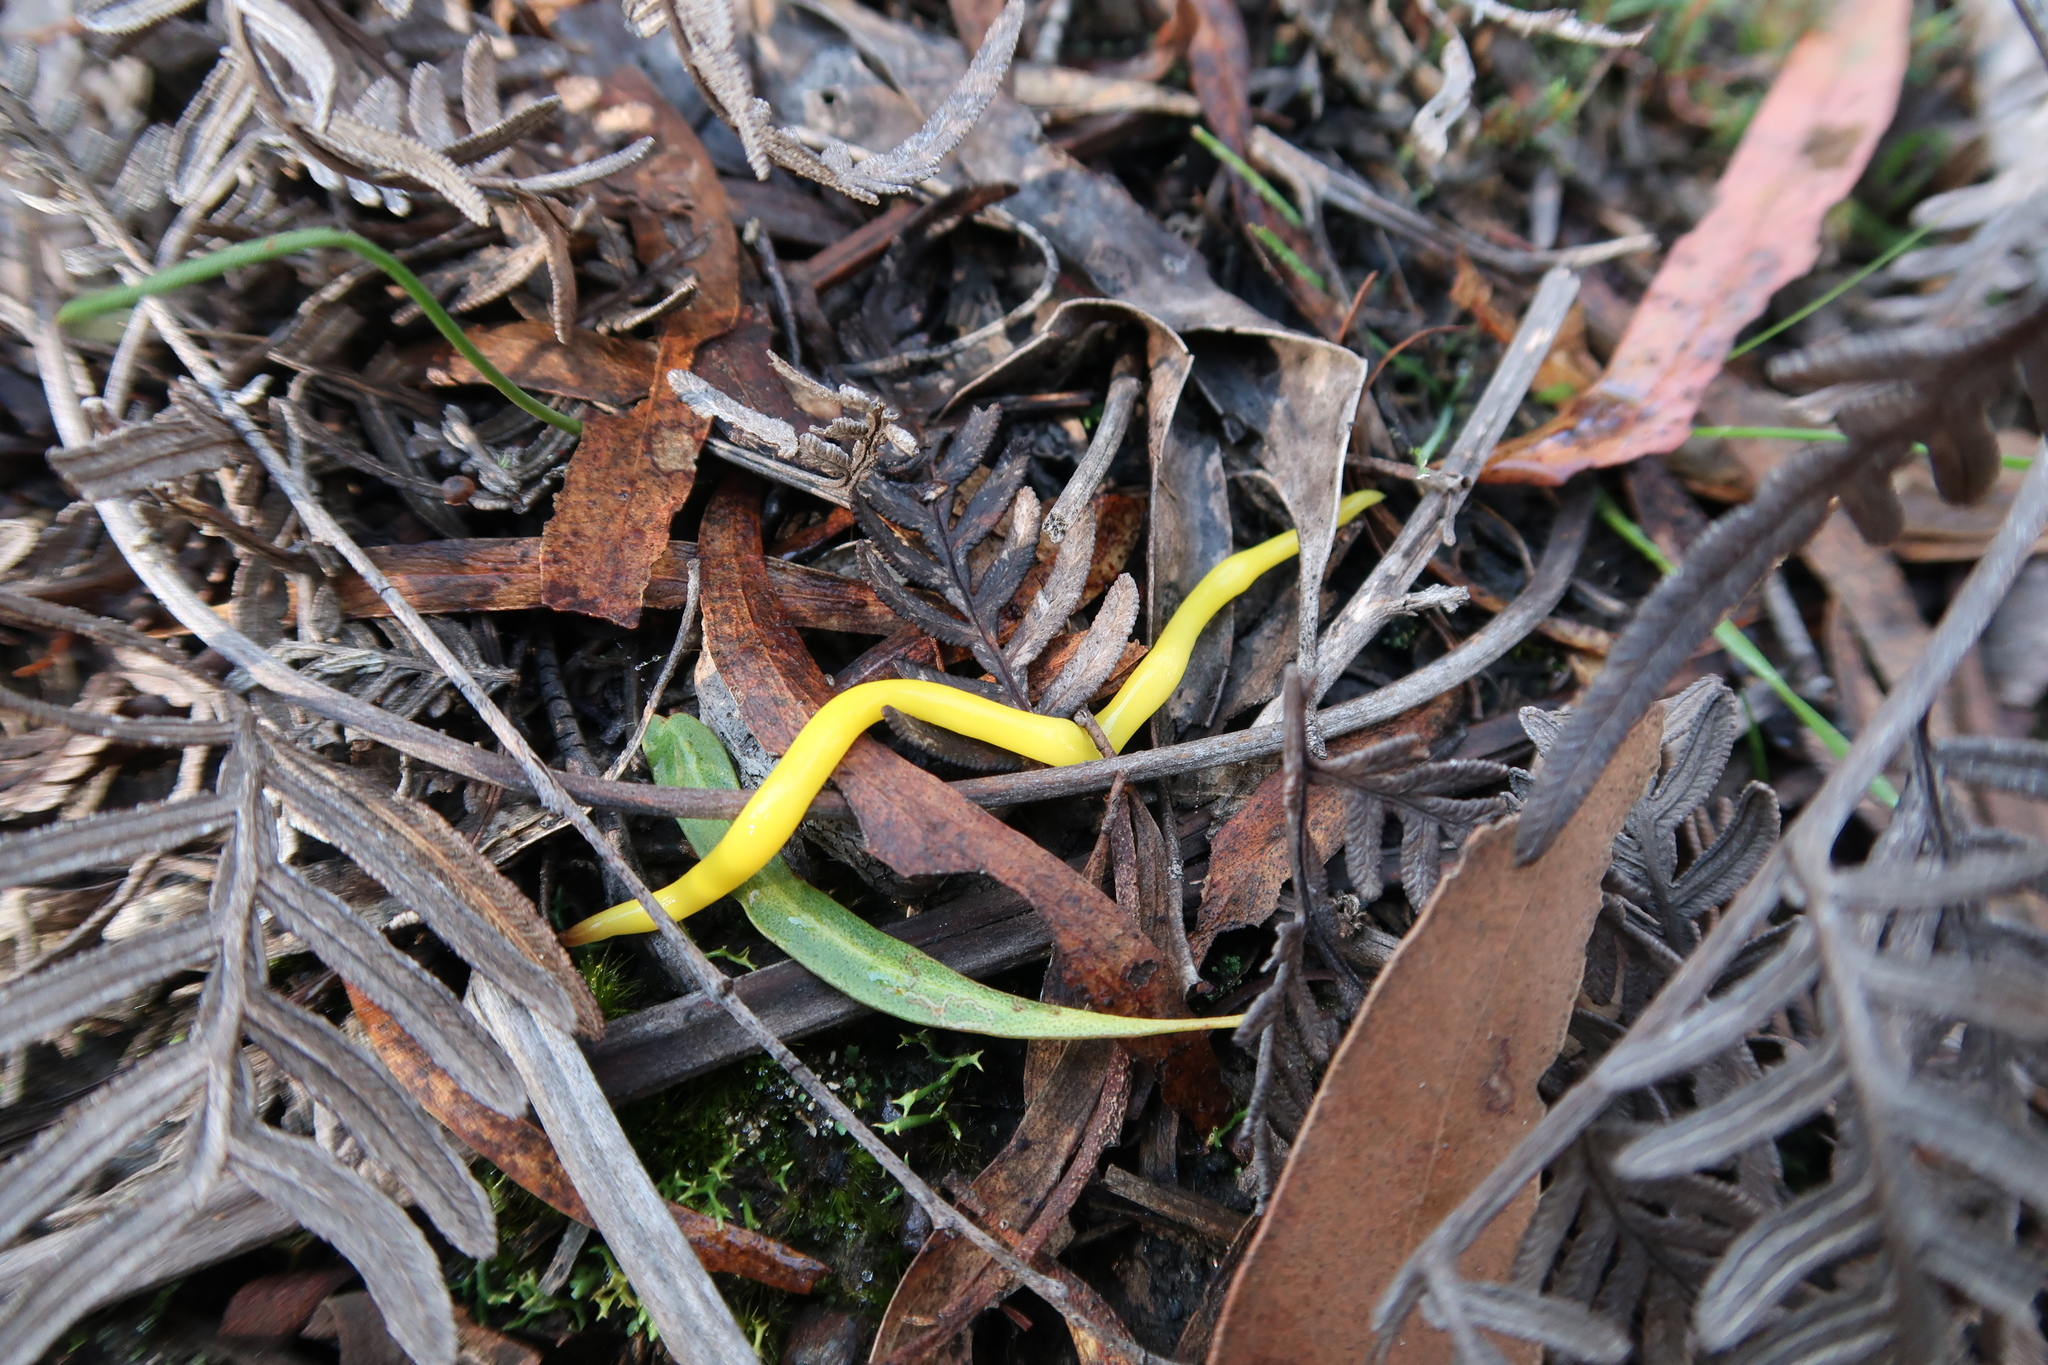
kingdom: Animalia
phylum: Platyhelminthes
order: Tricladida
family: Geoplanidae
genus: Fletchamia
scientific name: Fletchamia sugdeni
